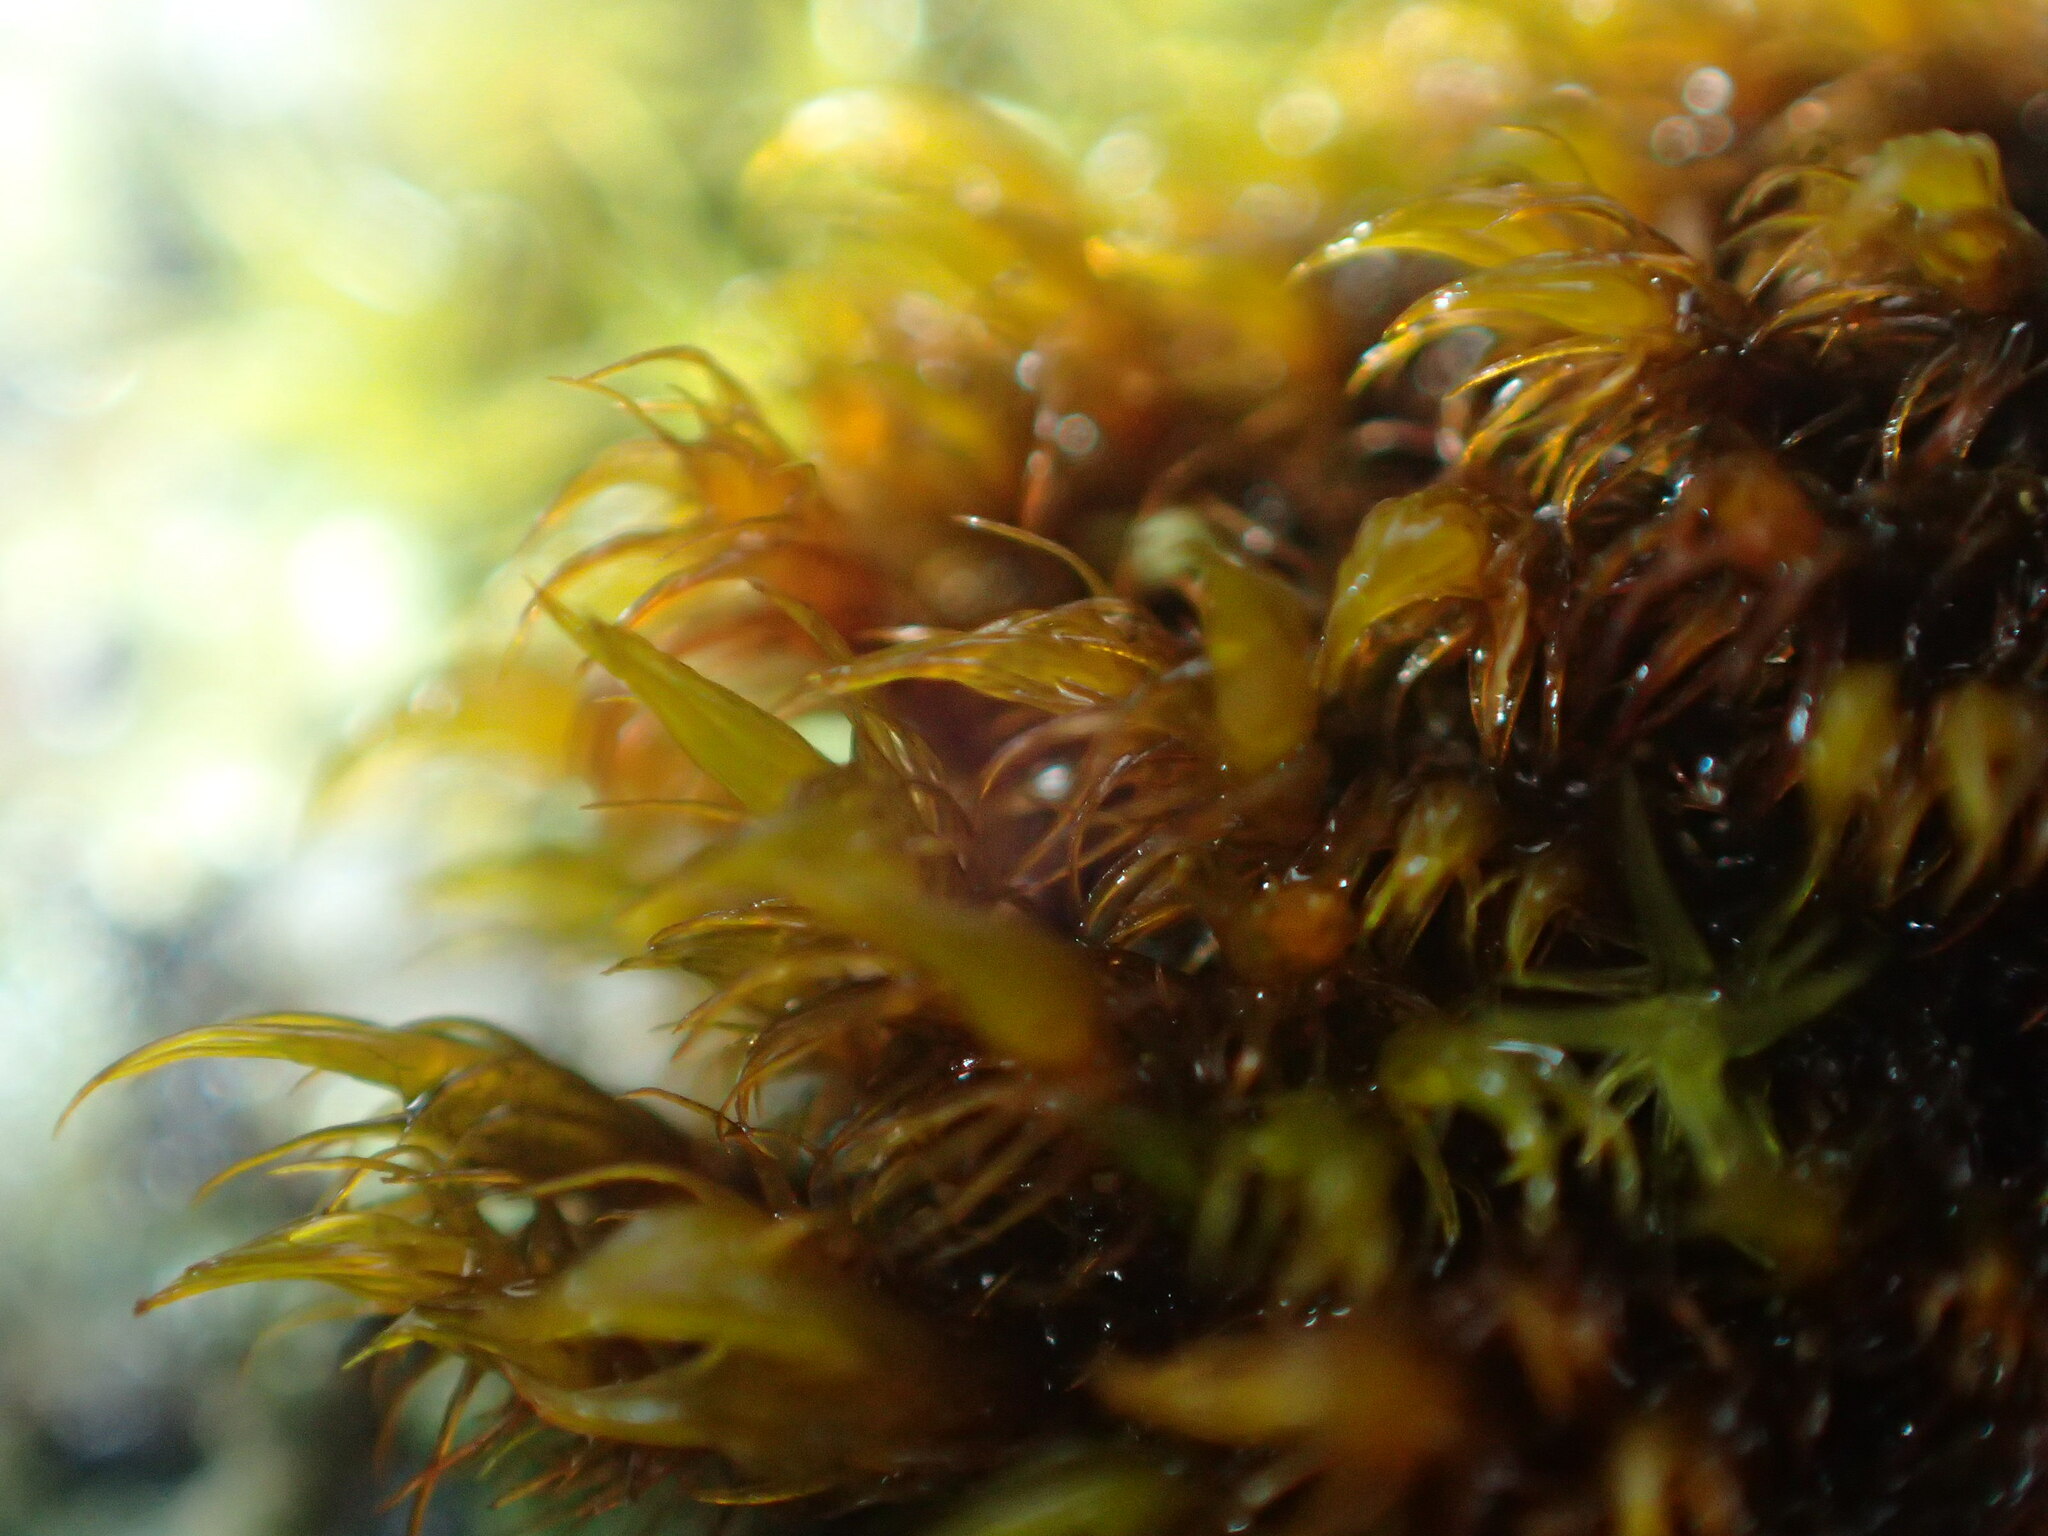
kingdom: Plantae
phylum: Bryophyta
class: Andreaeopsida
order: Andreaeales
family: Andreaeaceae
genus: Andreaea
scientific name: Andreaea mutabilis
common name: Changeable rock-moss
